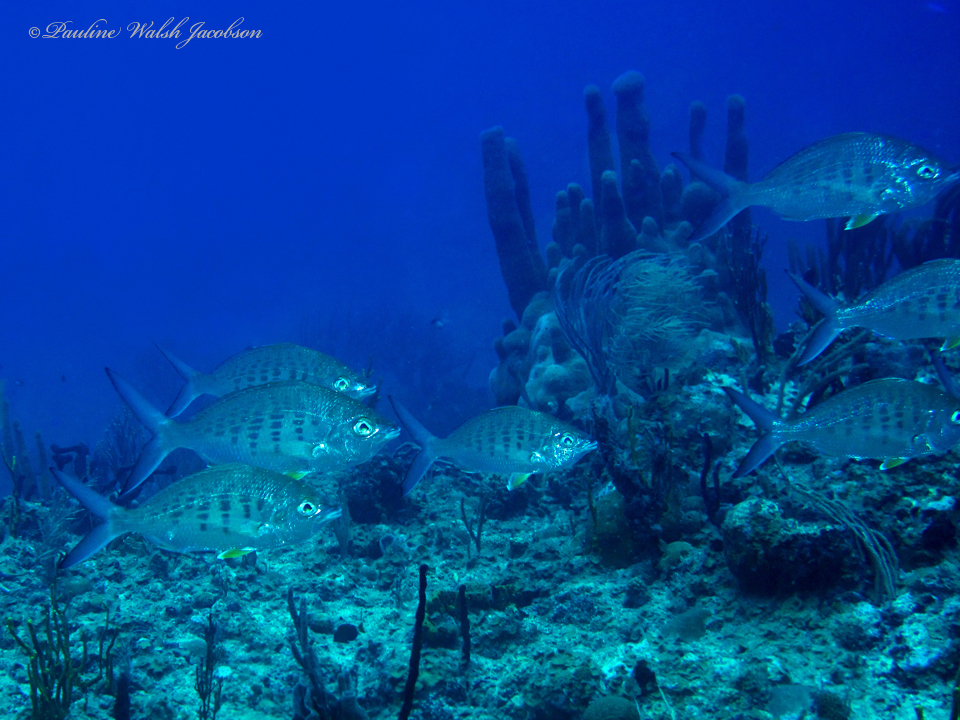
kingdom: Animalia
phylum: Chordata
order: Perciformes
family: Gerreidae
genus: Gerres
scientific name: Gerres cinereus
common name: Hedow
